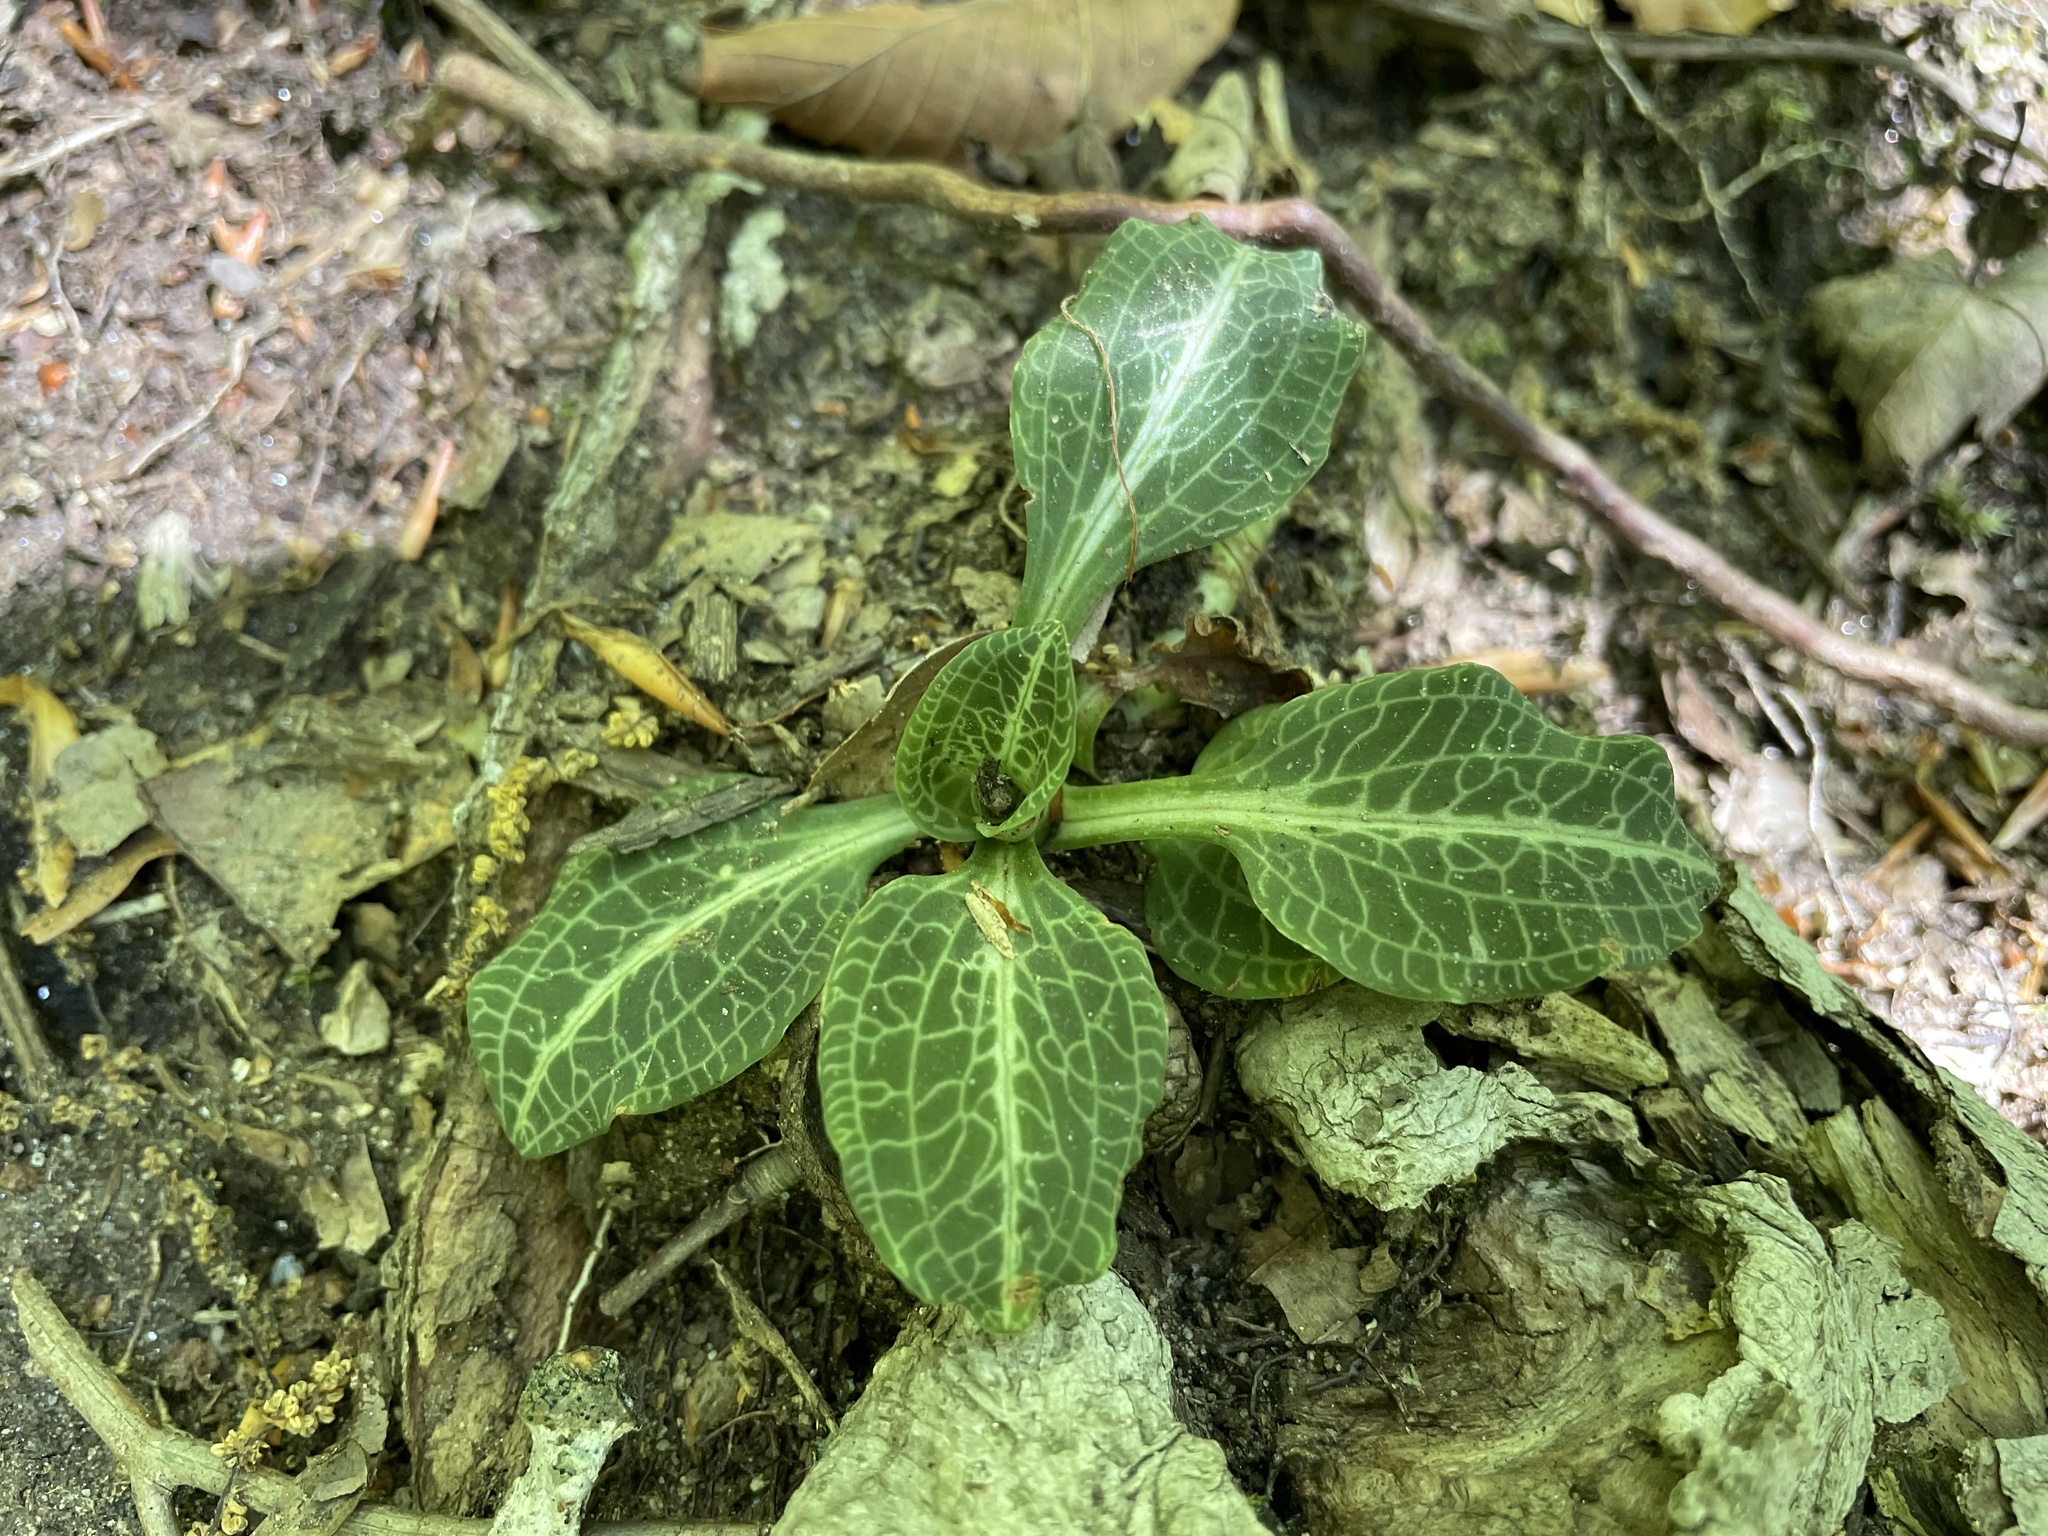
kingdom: Plantae
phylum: Tracheophyta
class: Liliopsida
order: Asparagales
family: Orchidaceae
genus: Goodyera
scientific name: Goodyera pubescens
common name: Downy rattlesnake-plantain
